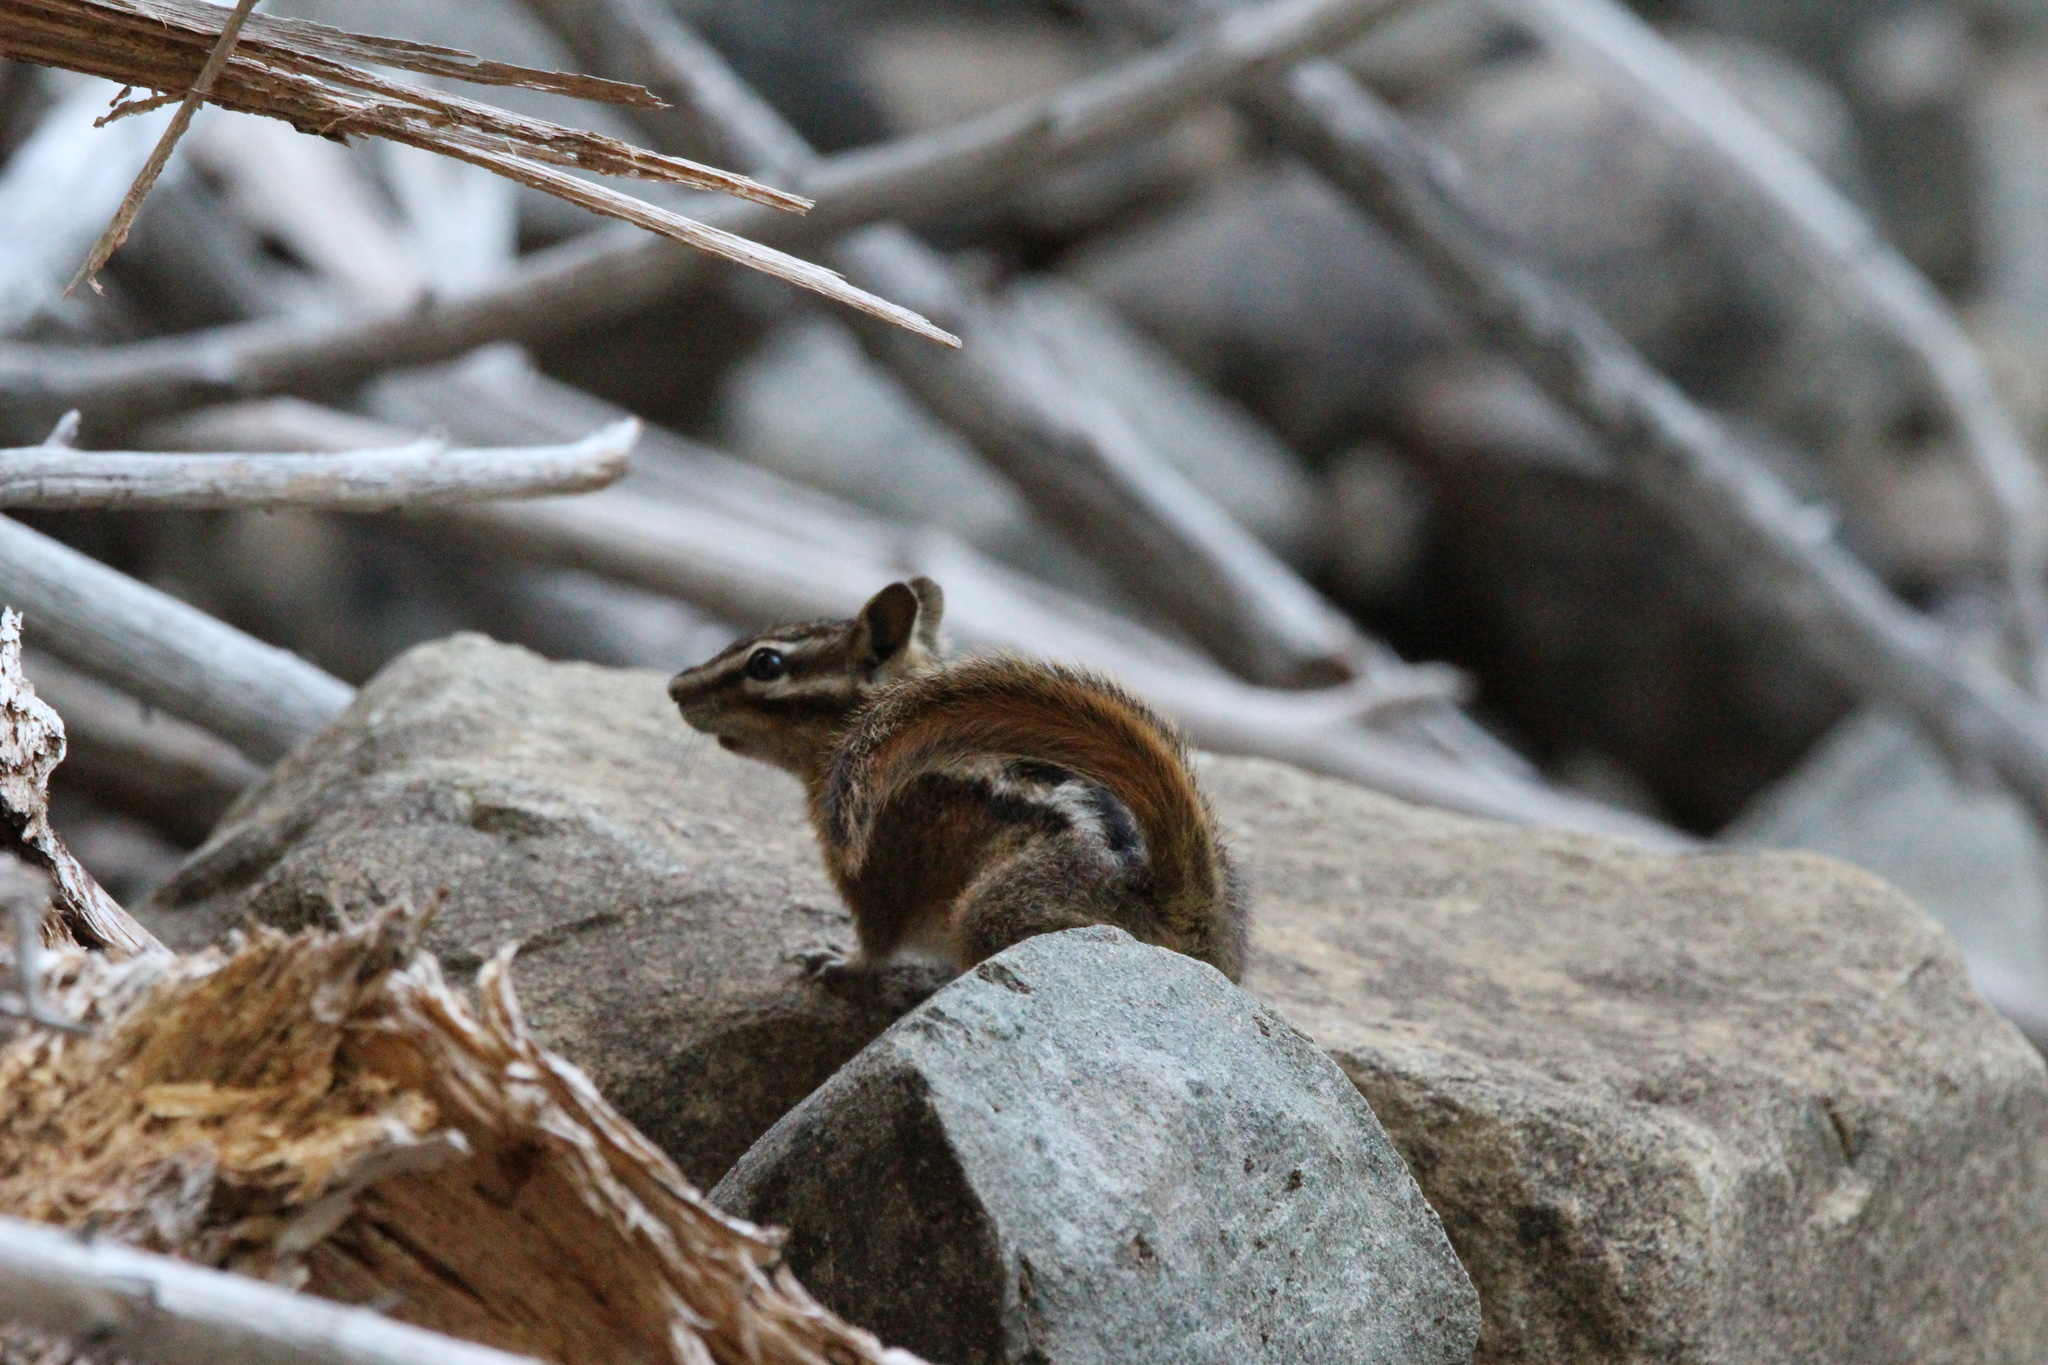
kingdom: Animalia
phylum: Chordata
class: Mammalia
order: Rodentia
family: Sciuridae
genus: Tamias
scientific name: Tamias amoenus
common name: Yellow-pine chipmunk
